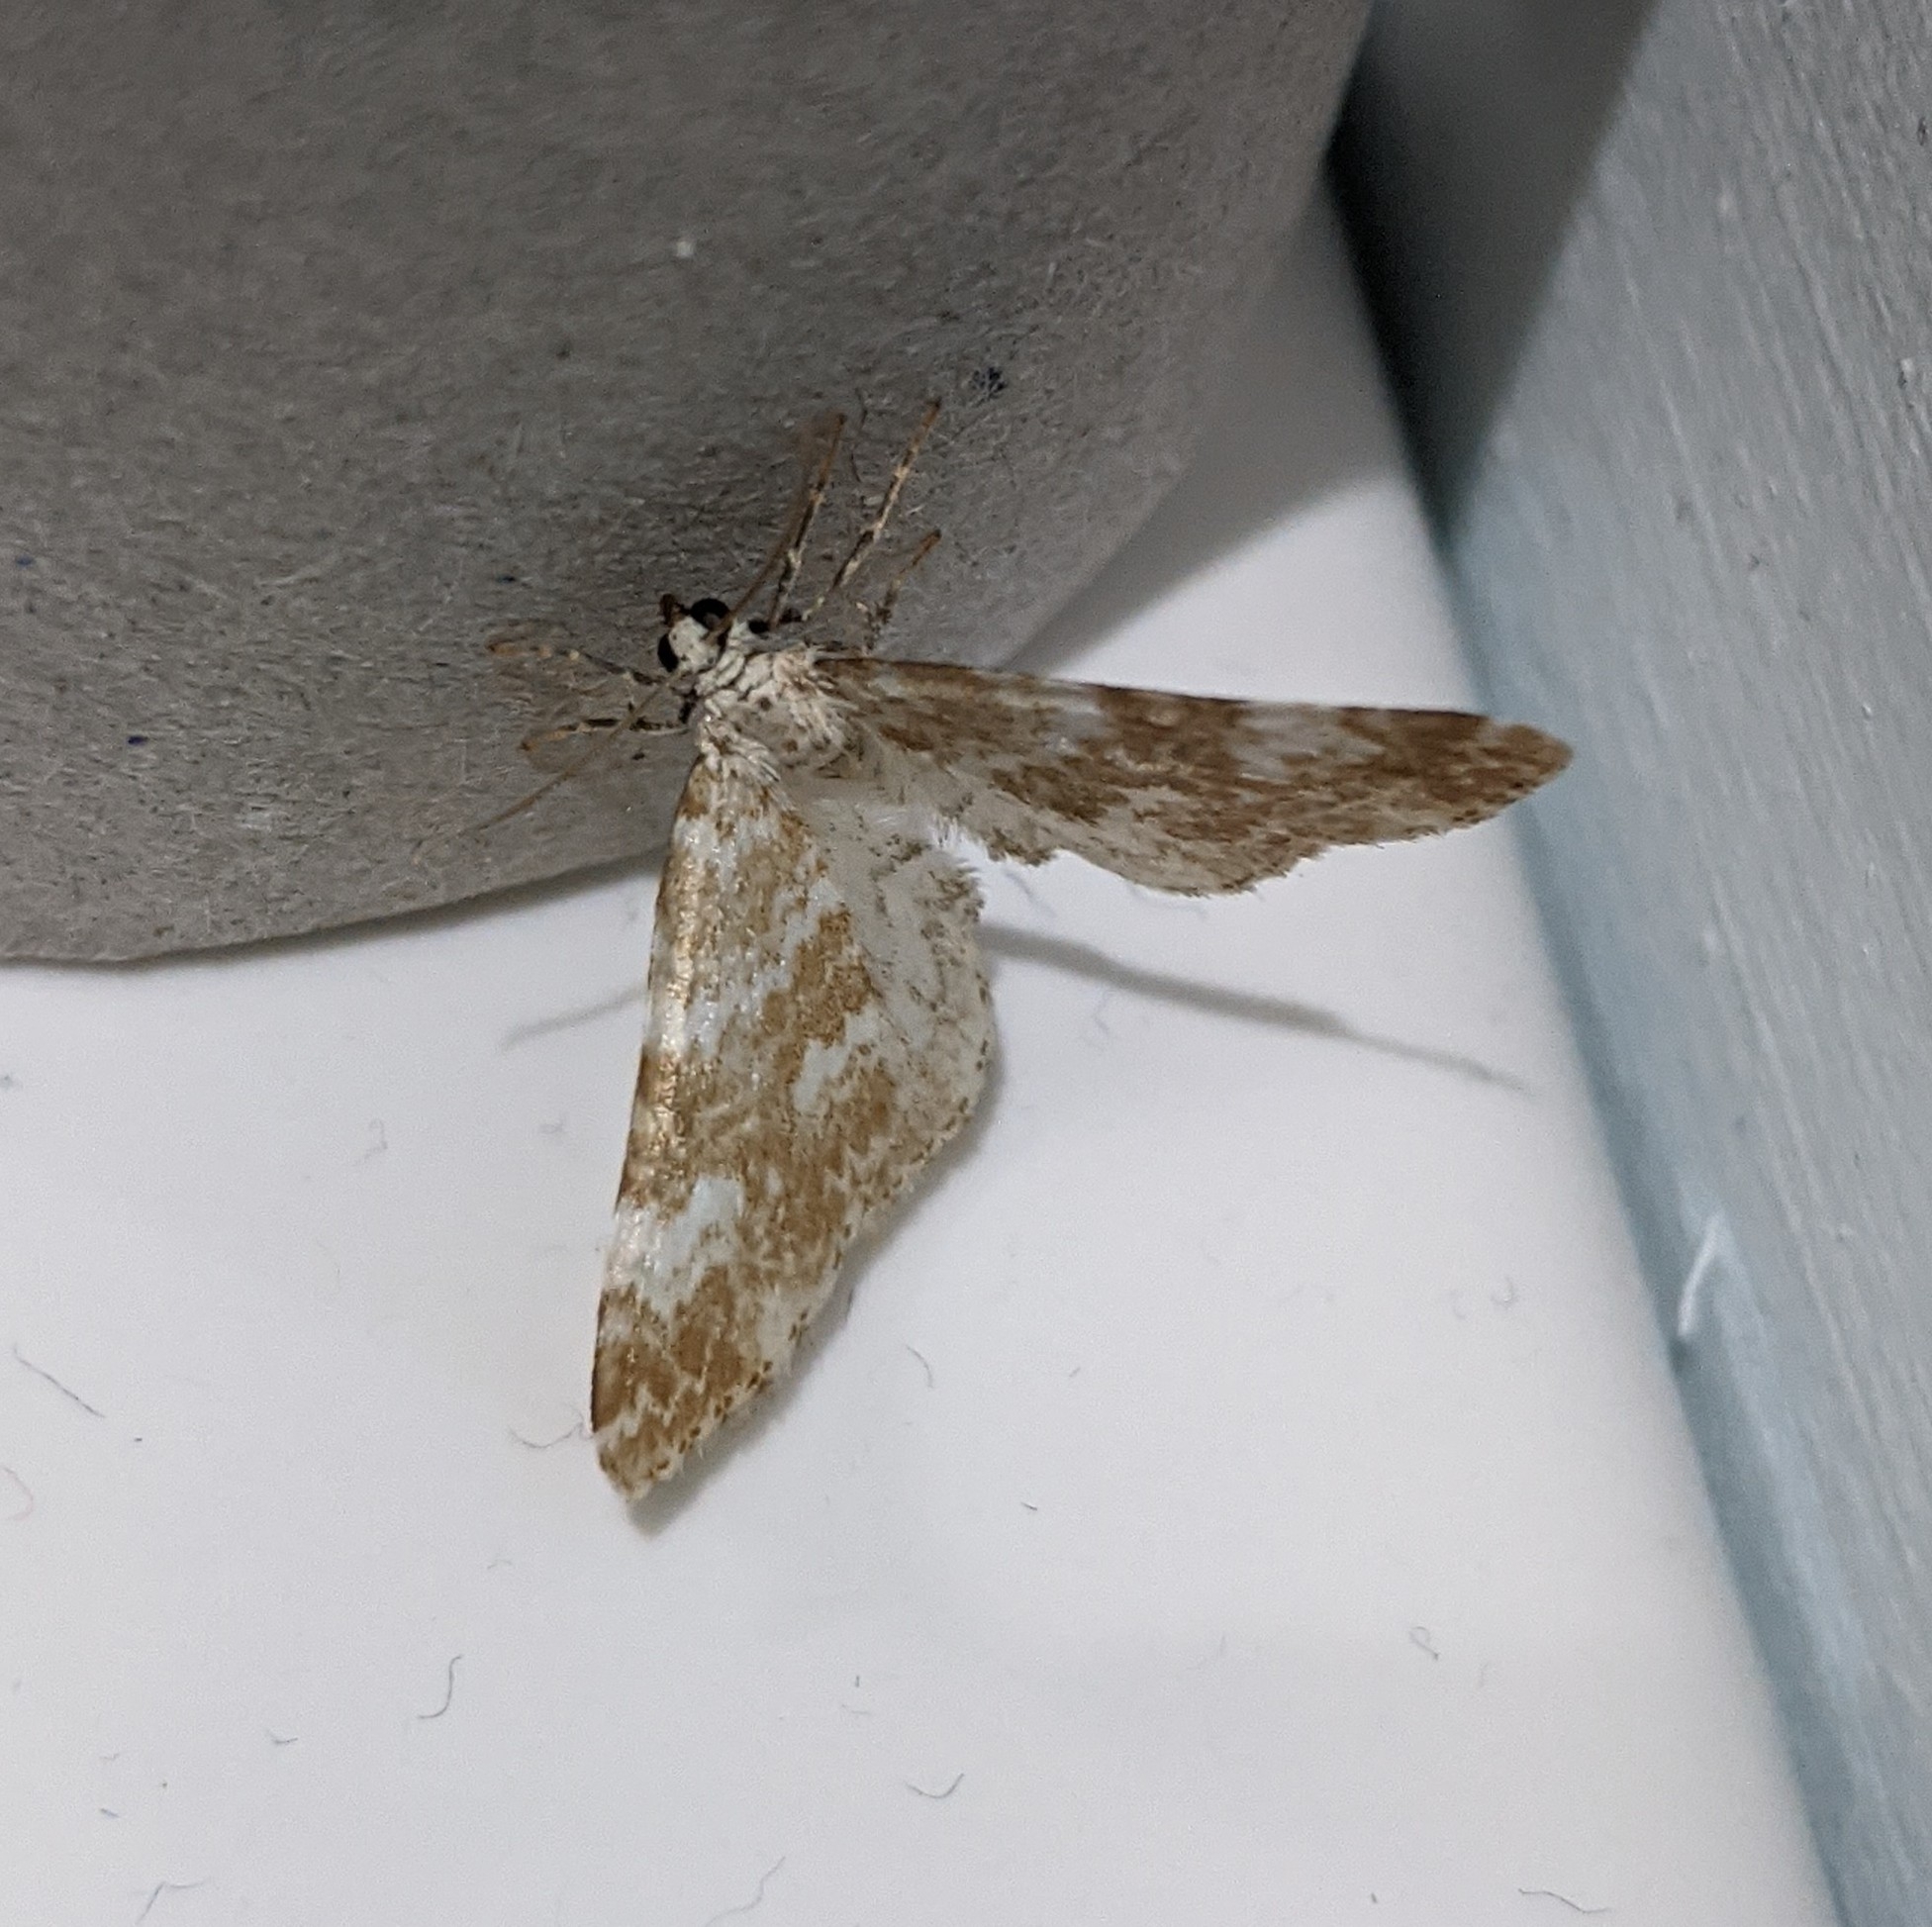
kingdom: Animalia
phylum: Arthropoda
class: Insecta
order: Lepidoptera
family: Geometridae
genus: Perizoma
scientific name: Perizoma flavofasciata
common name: Sandy carpet
